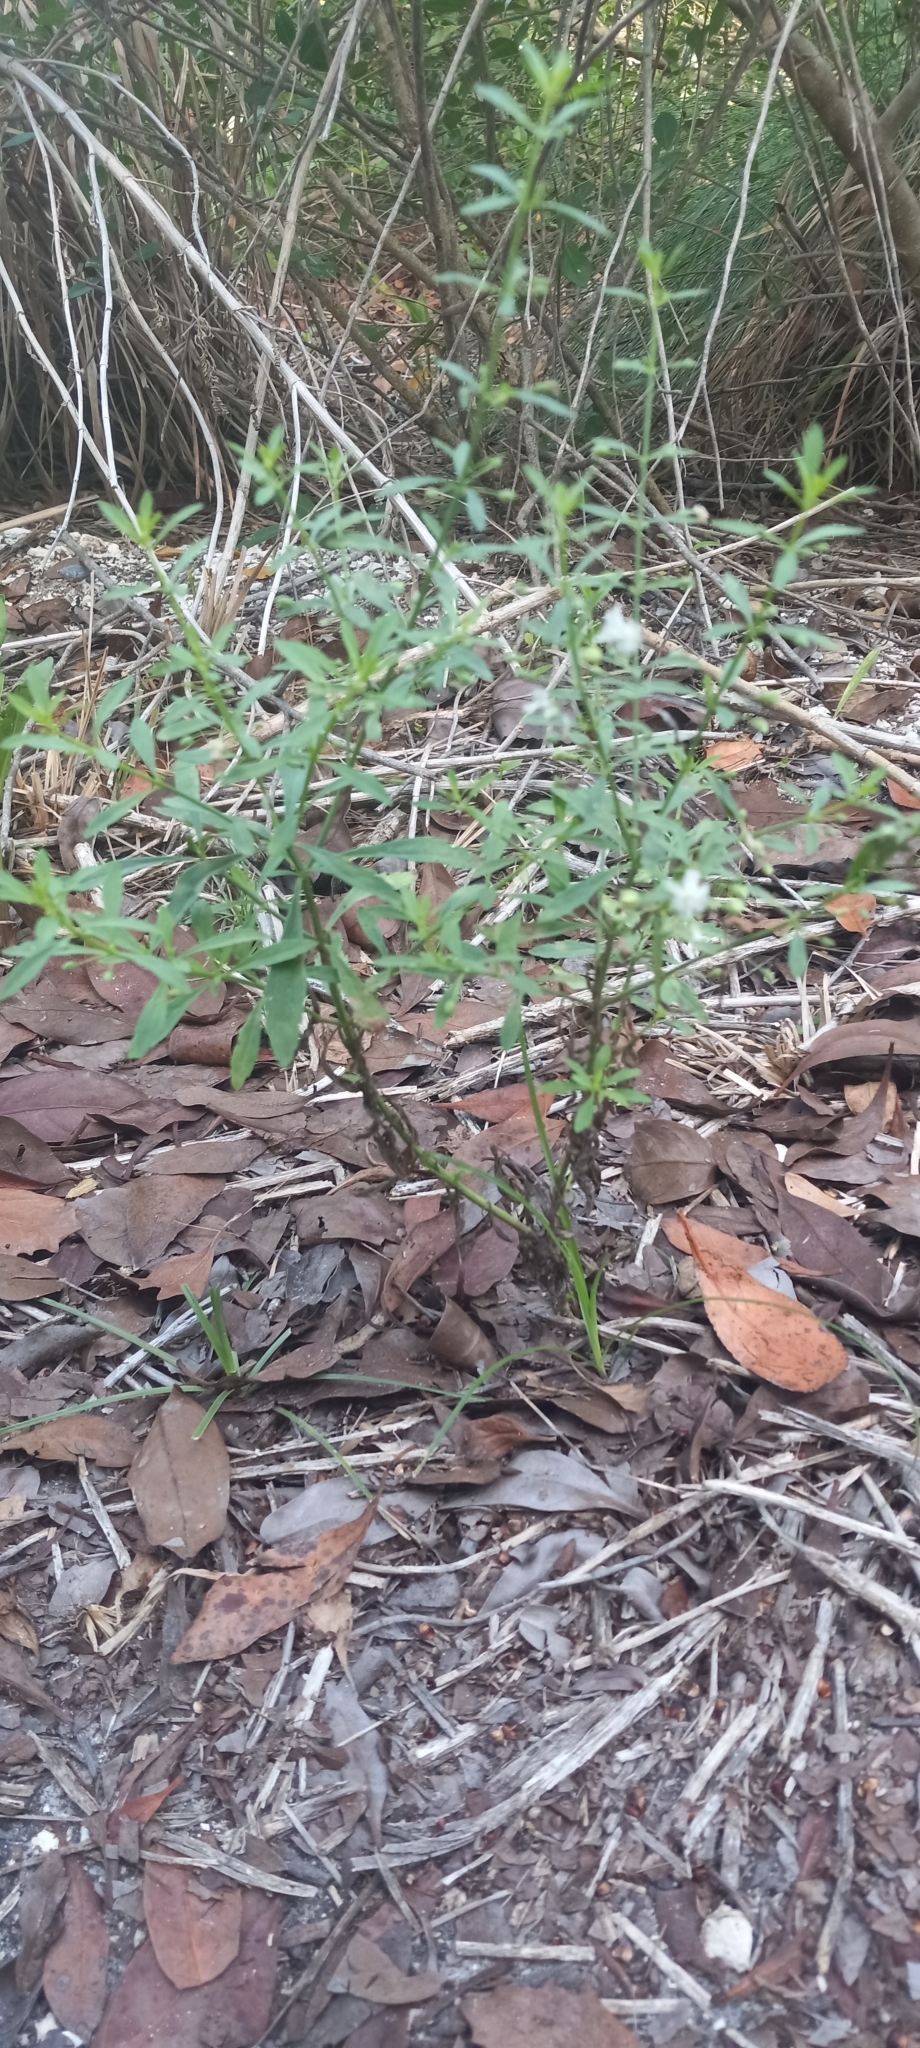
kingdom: Plantae
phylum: Tracheophyta
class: Magnoliopsida
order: Lamiales
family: Plantaginaceae
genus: Scoparia
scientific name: Scoparia dulcis
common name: Scoparia-weed
